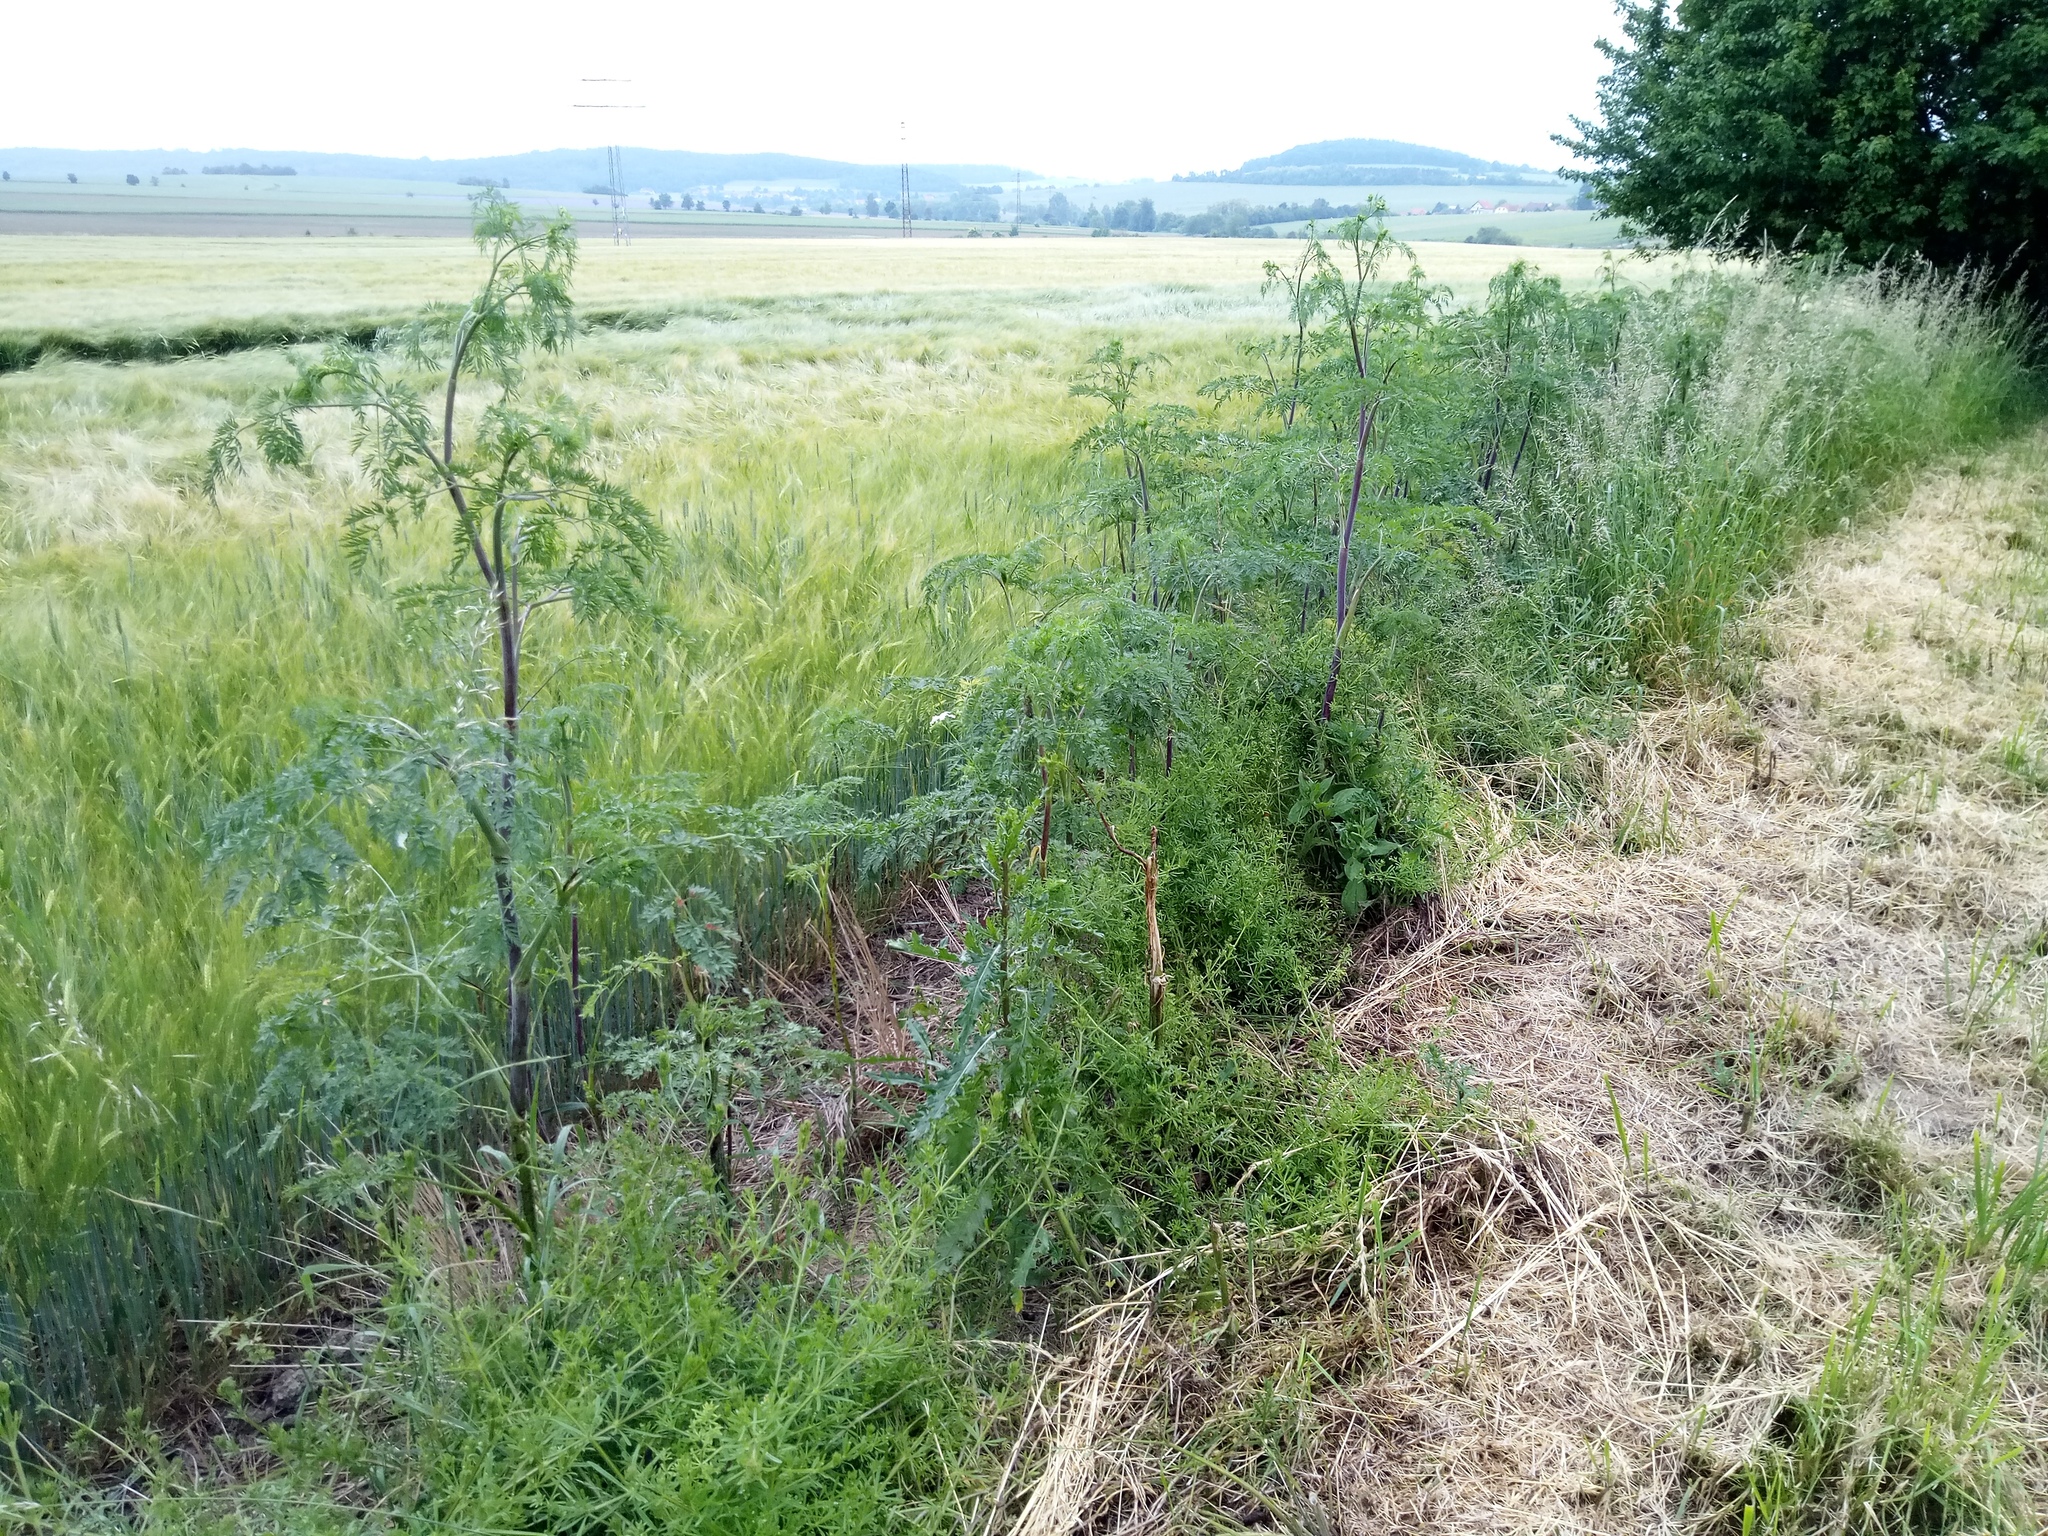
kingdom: Plantae
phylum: Tracheophyta
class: Magnoliopsida
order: Apiales
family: Apiaceae
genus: Conium
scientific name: Conium maculatum
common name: Hemlock
